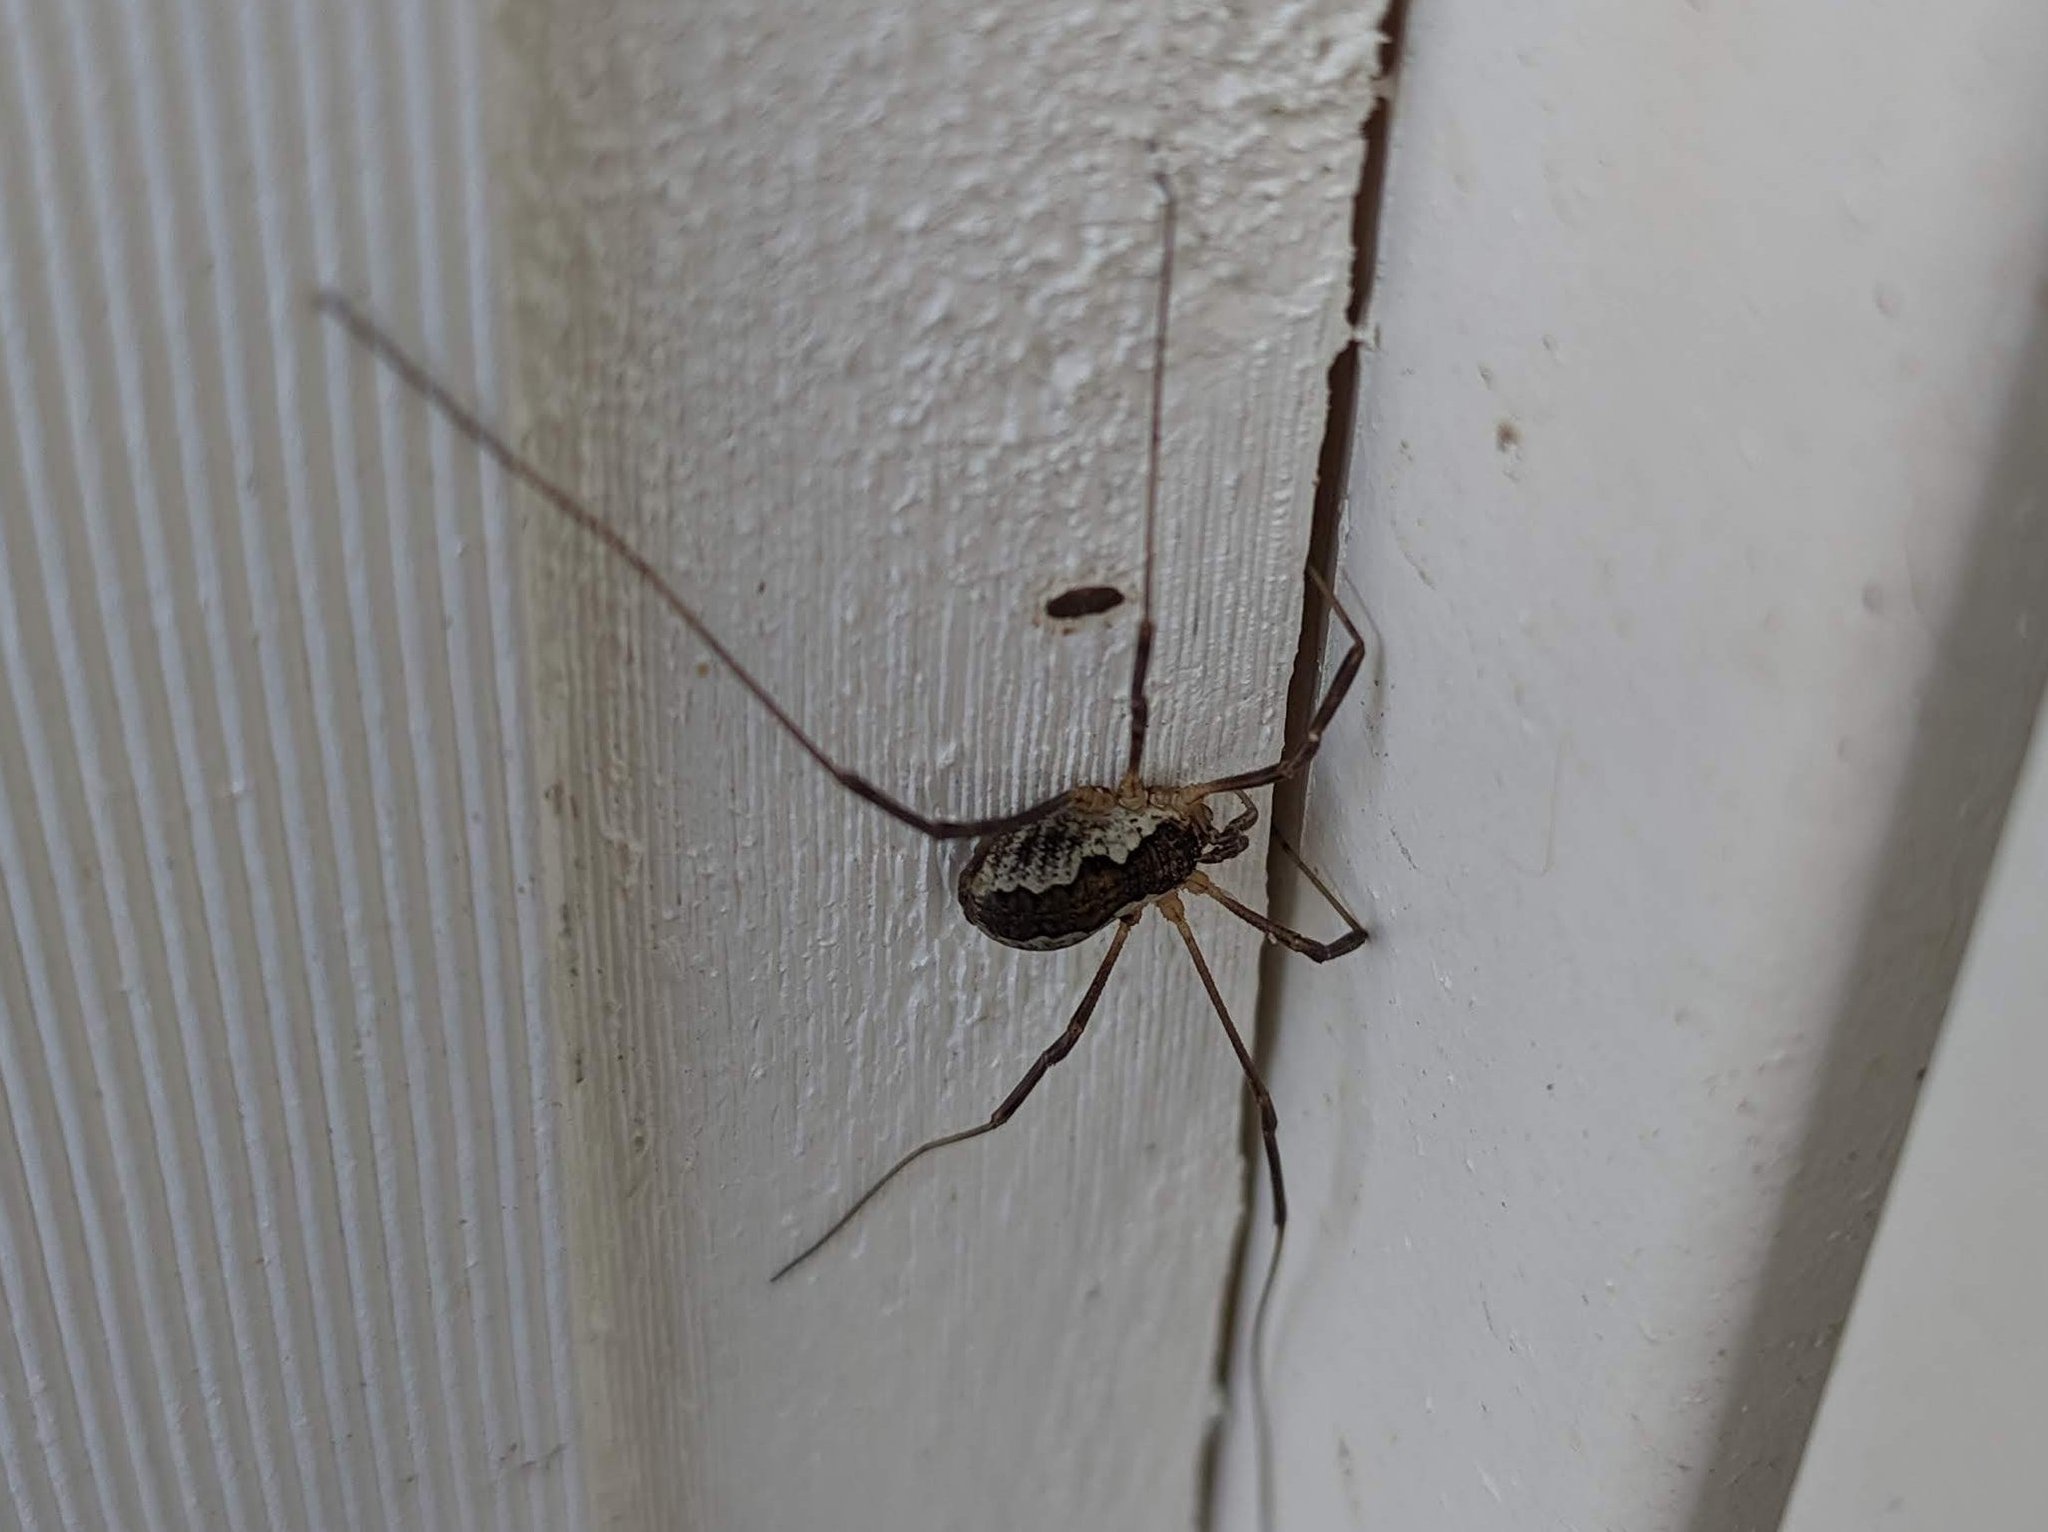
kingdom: Animalia
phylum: Arthropoda
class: Arachnida
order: Opiliones
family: Phalangiidae
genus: Mitopus
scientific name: Mitopus morio
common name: Saddleback harvestman
